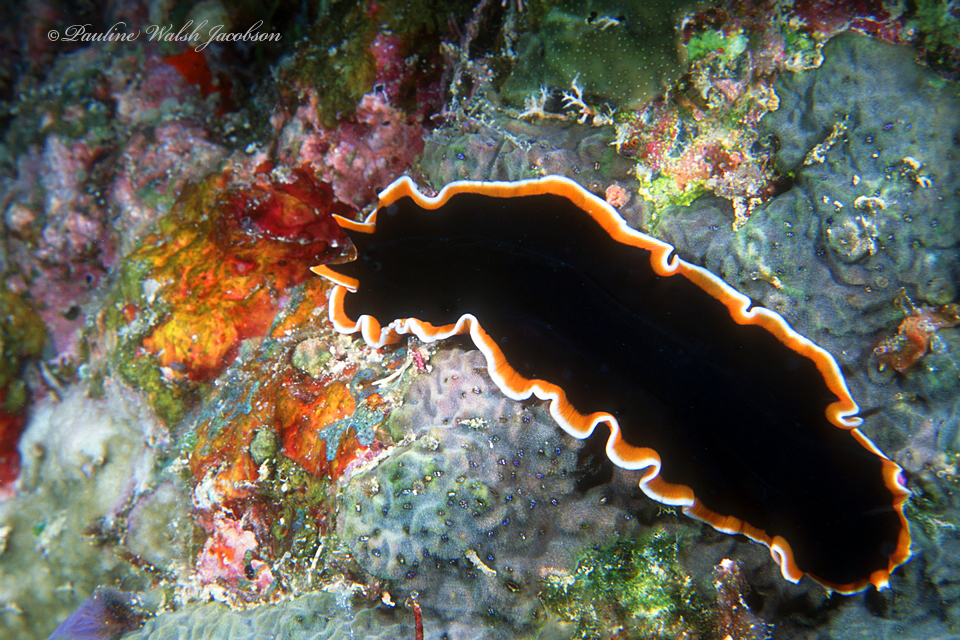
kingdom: Animalia
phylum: Platyhelminthes
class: Turbellaria
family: Pseudocerotidae
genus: Pseudobiceros
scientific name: Pseudobiceros hancockanus
